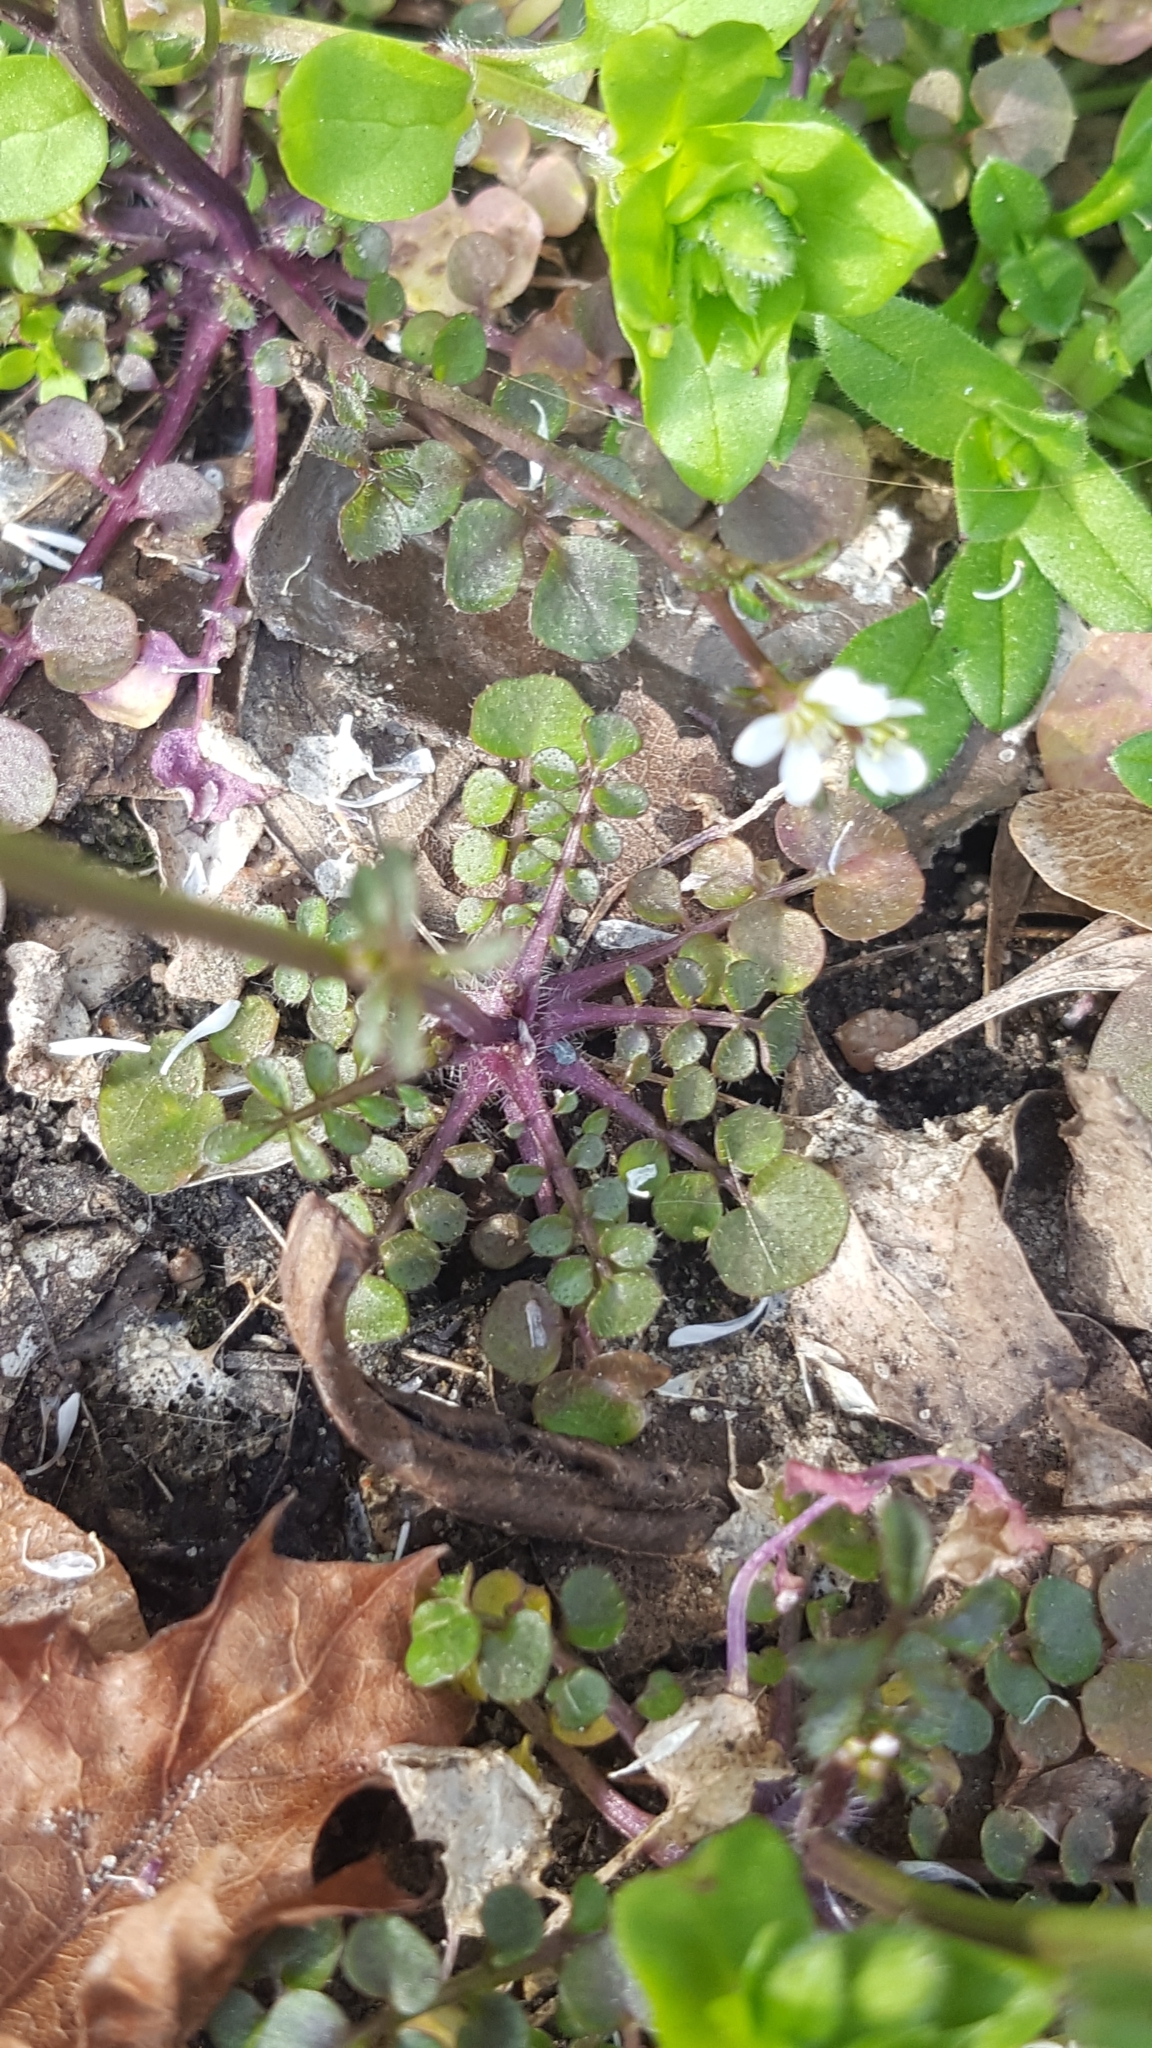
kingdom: Plantae
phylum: Tracheophyta
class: Magnoliopsida
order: Brassicales
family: Brassicaceae
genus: Cardamine
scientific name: Cardamine hirsuta
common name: Hairy bittercress
